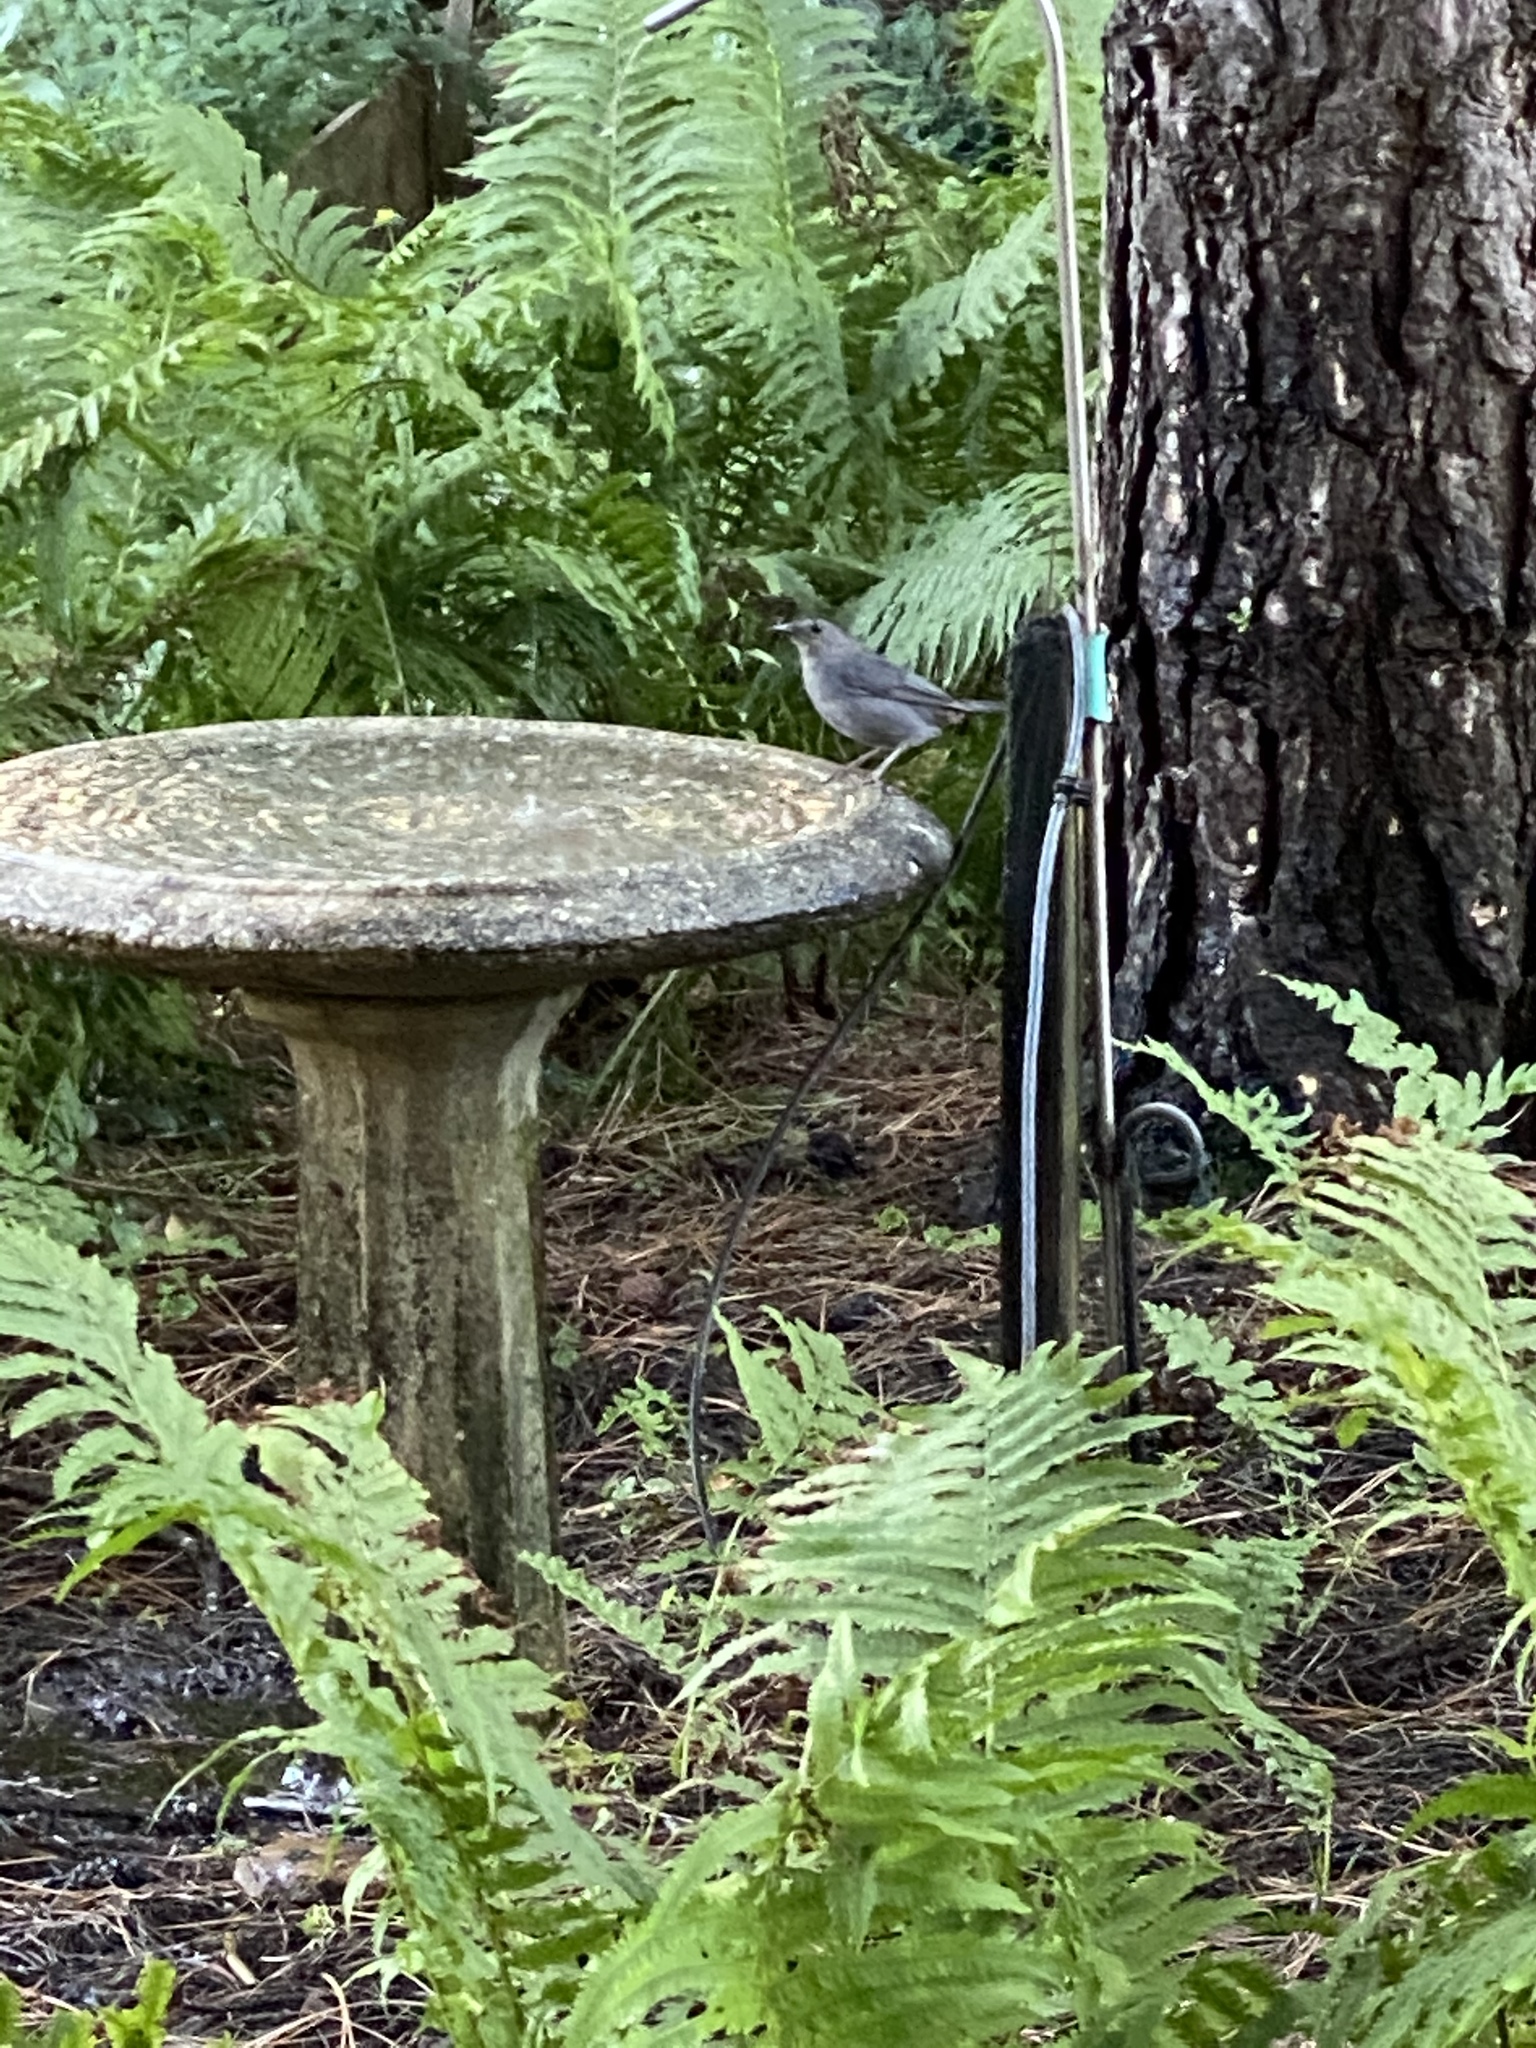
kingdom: Animalia
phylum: Chordata
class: Aves
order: Passeriformes
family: Mimidae
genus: Dumetella
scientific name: Dumetella carolinensis
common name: Gray catbird
